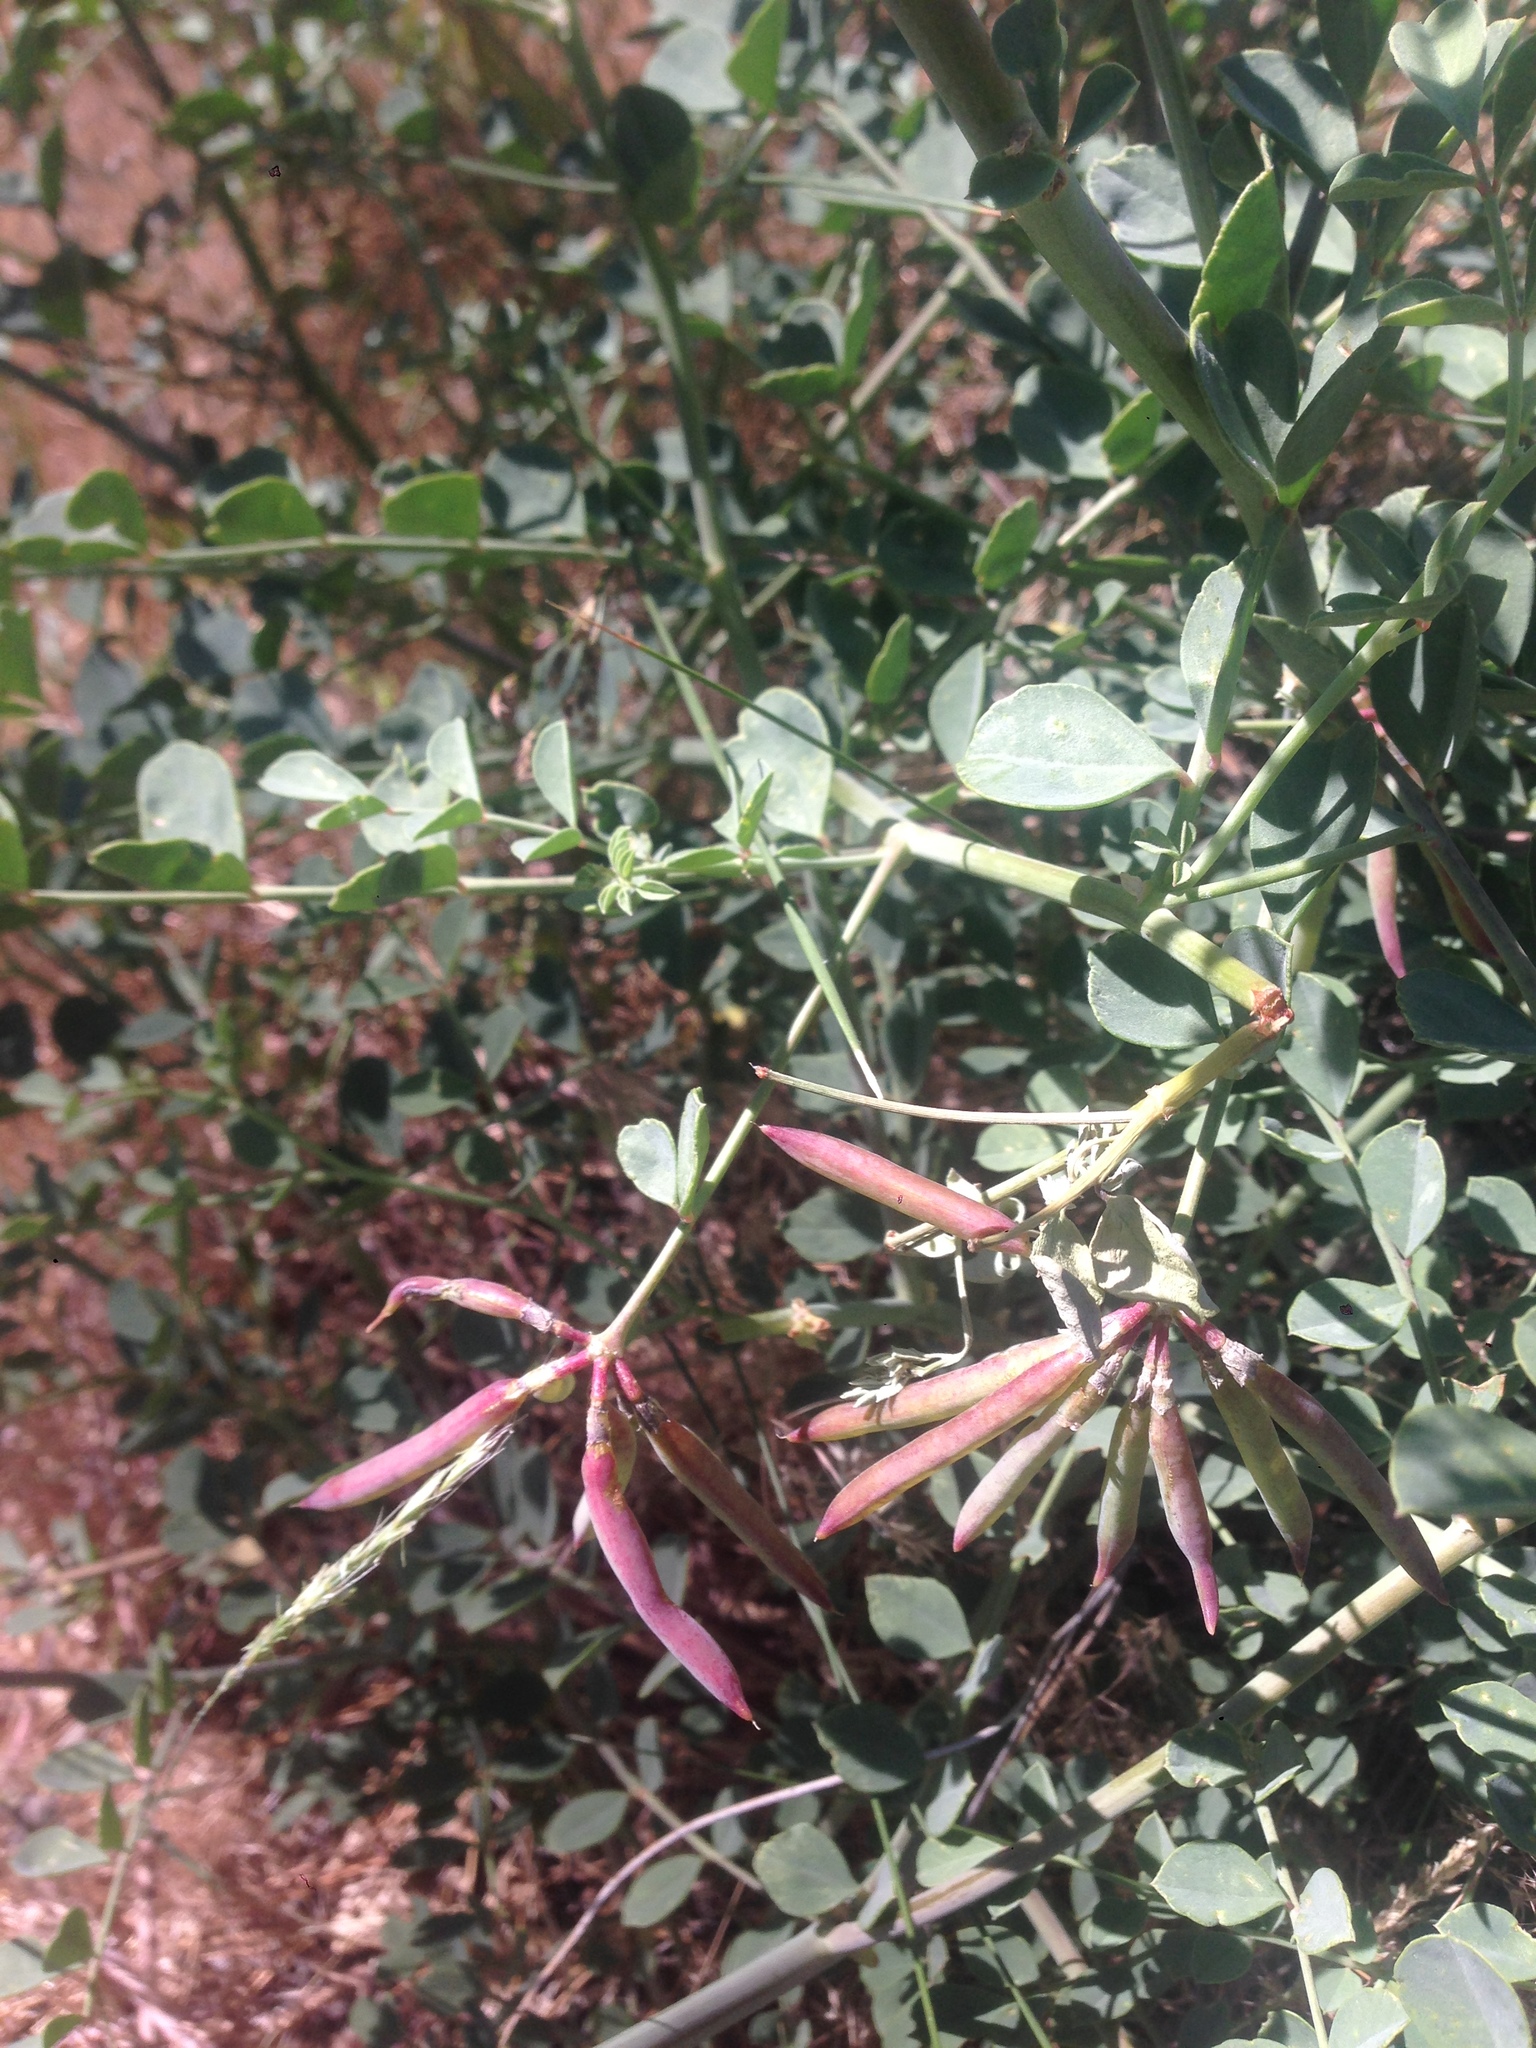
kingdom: Plantae
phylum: Tracheophyta
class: Magnoliopsida
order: Fabales
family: Fabaceae
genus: Hosackia
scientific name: Hosackia crassifolia
